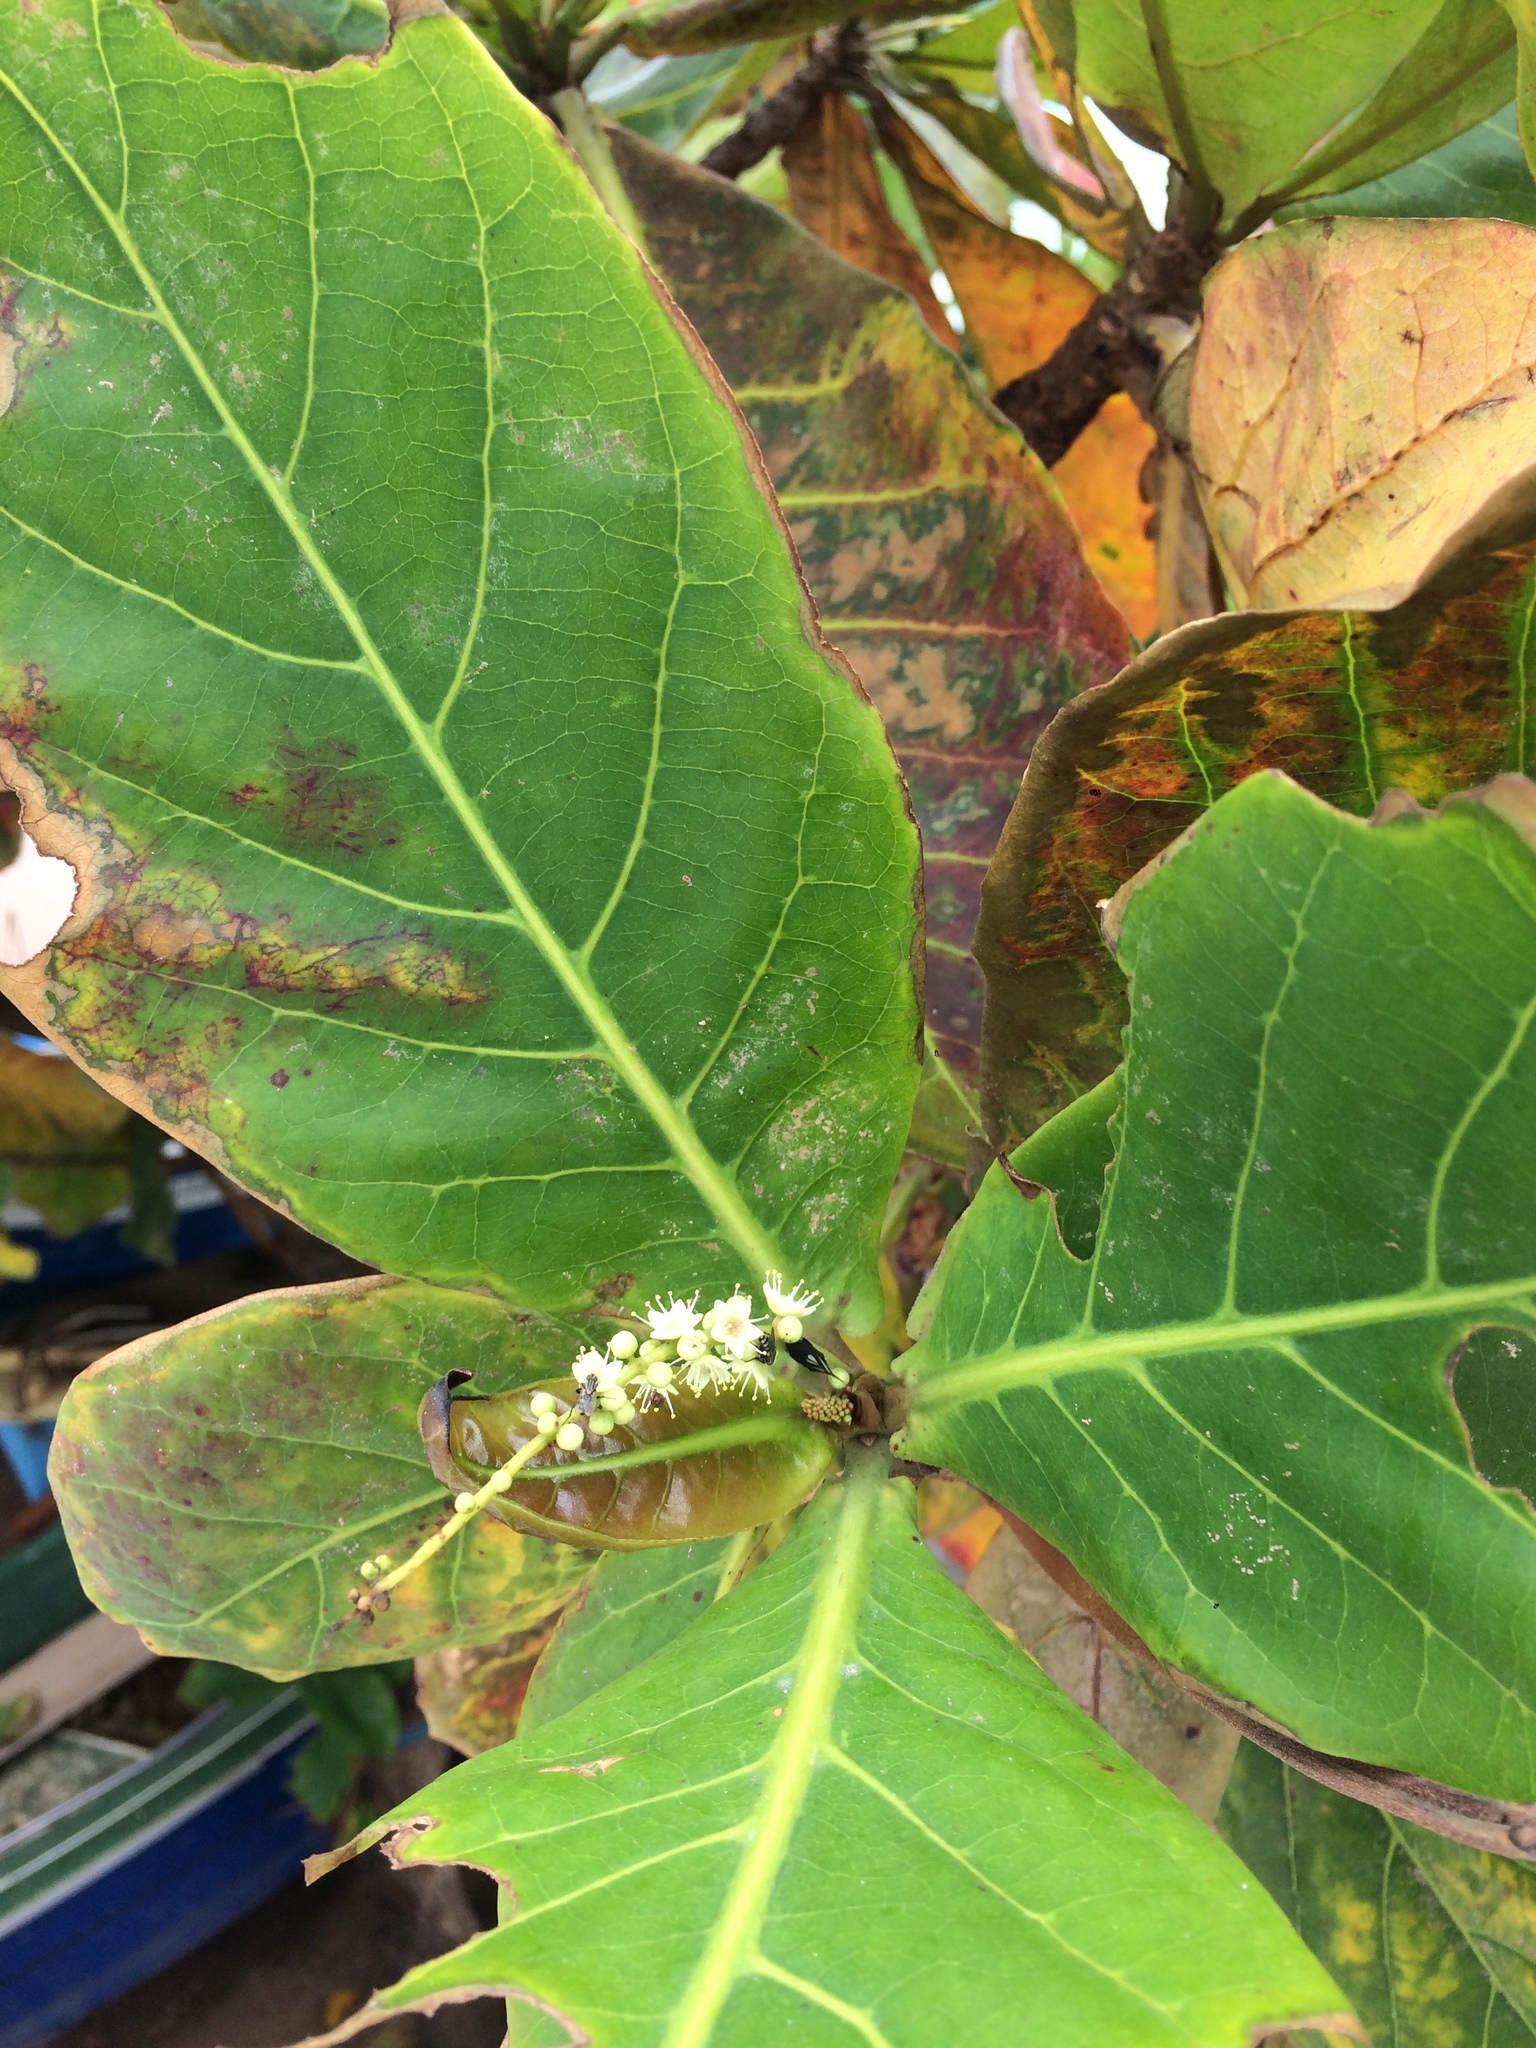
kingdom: Plantae
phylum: Tracheophyta
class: Magnoliopsida
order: Myrtales
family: Combretaceae
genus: Terminalia
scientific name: Terminalia catappa
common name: Tropical almond
